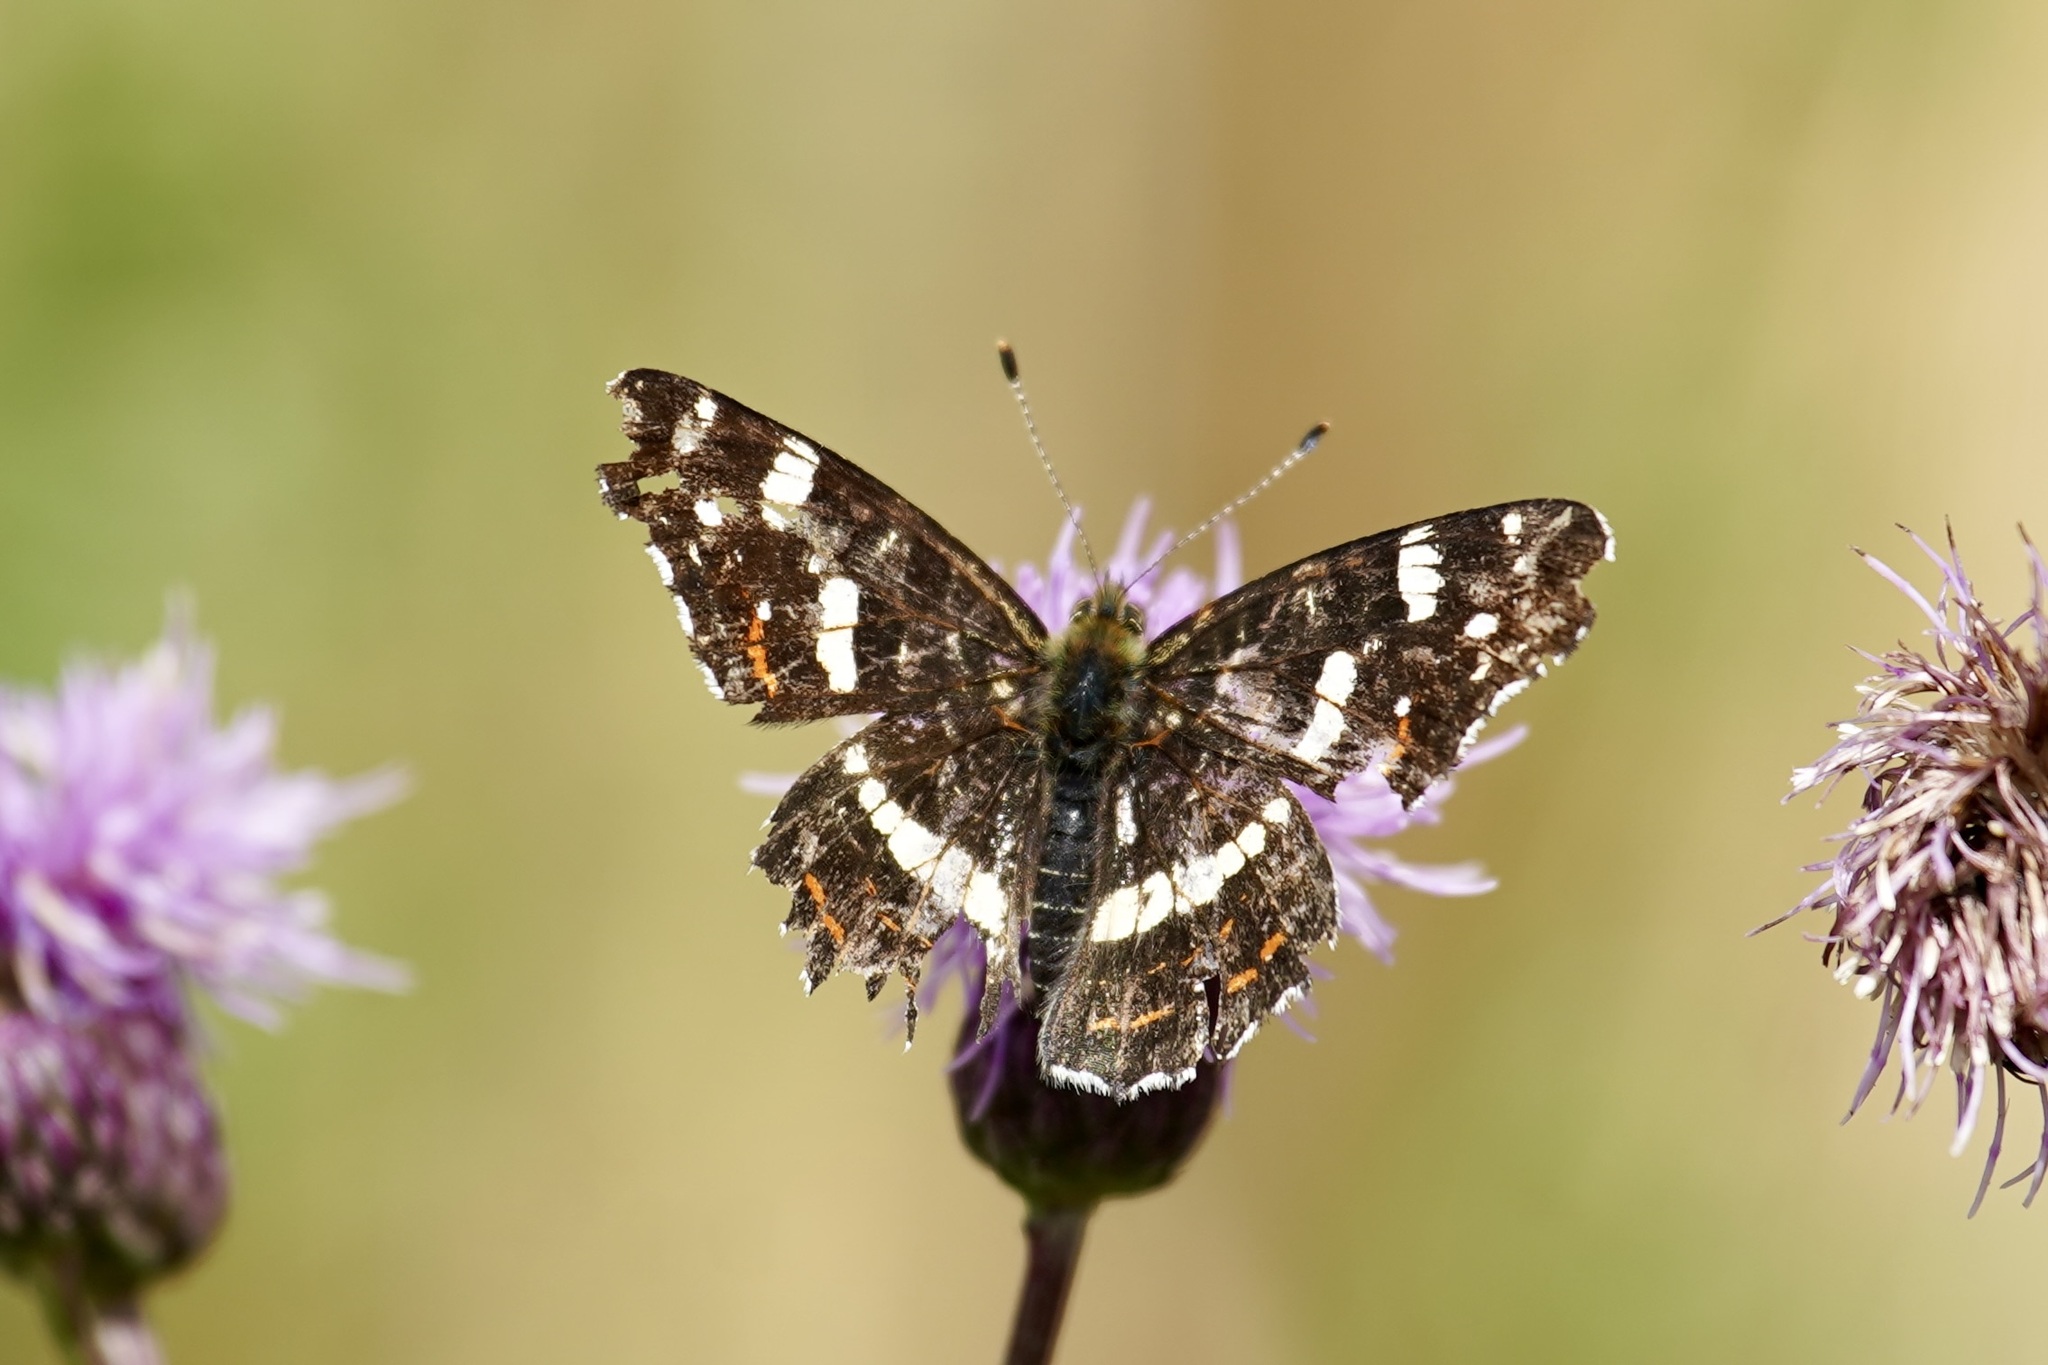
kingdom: Animalia
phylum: Arthropoda
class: Insecta
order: Lepidoptera
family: Nymphalidae
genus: Araschnia
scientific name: Araschnia levana
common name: Map butterfly
